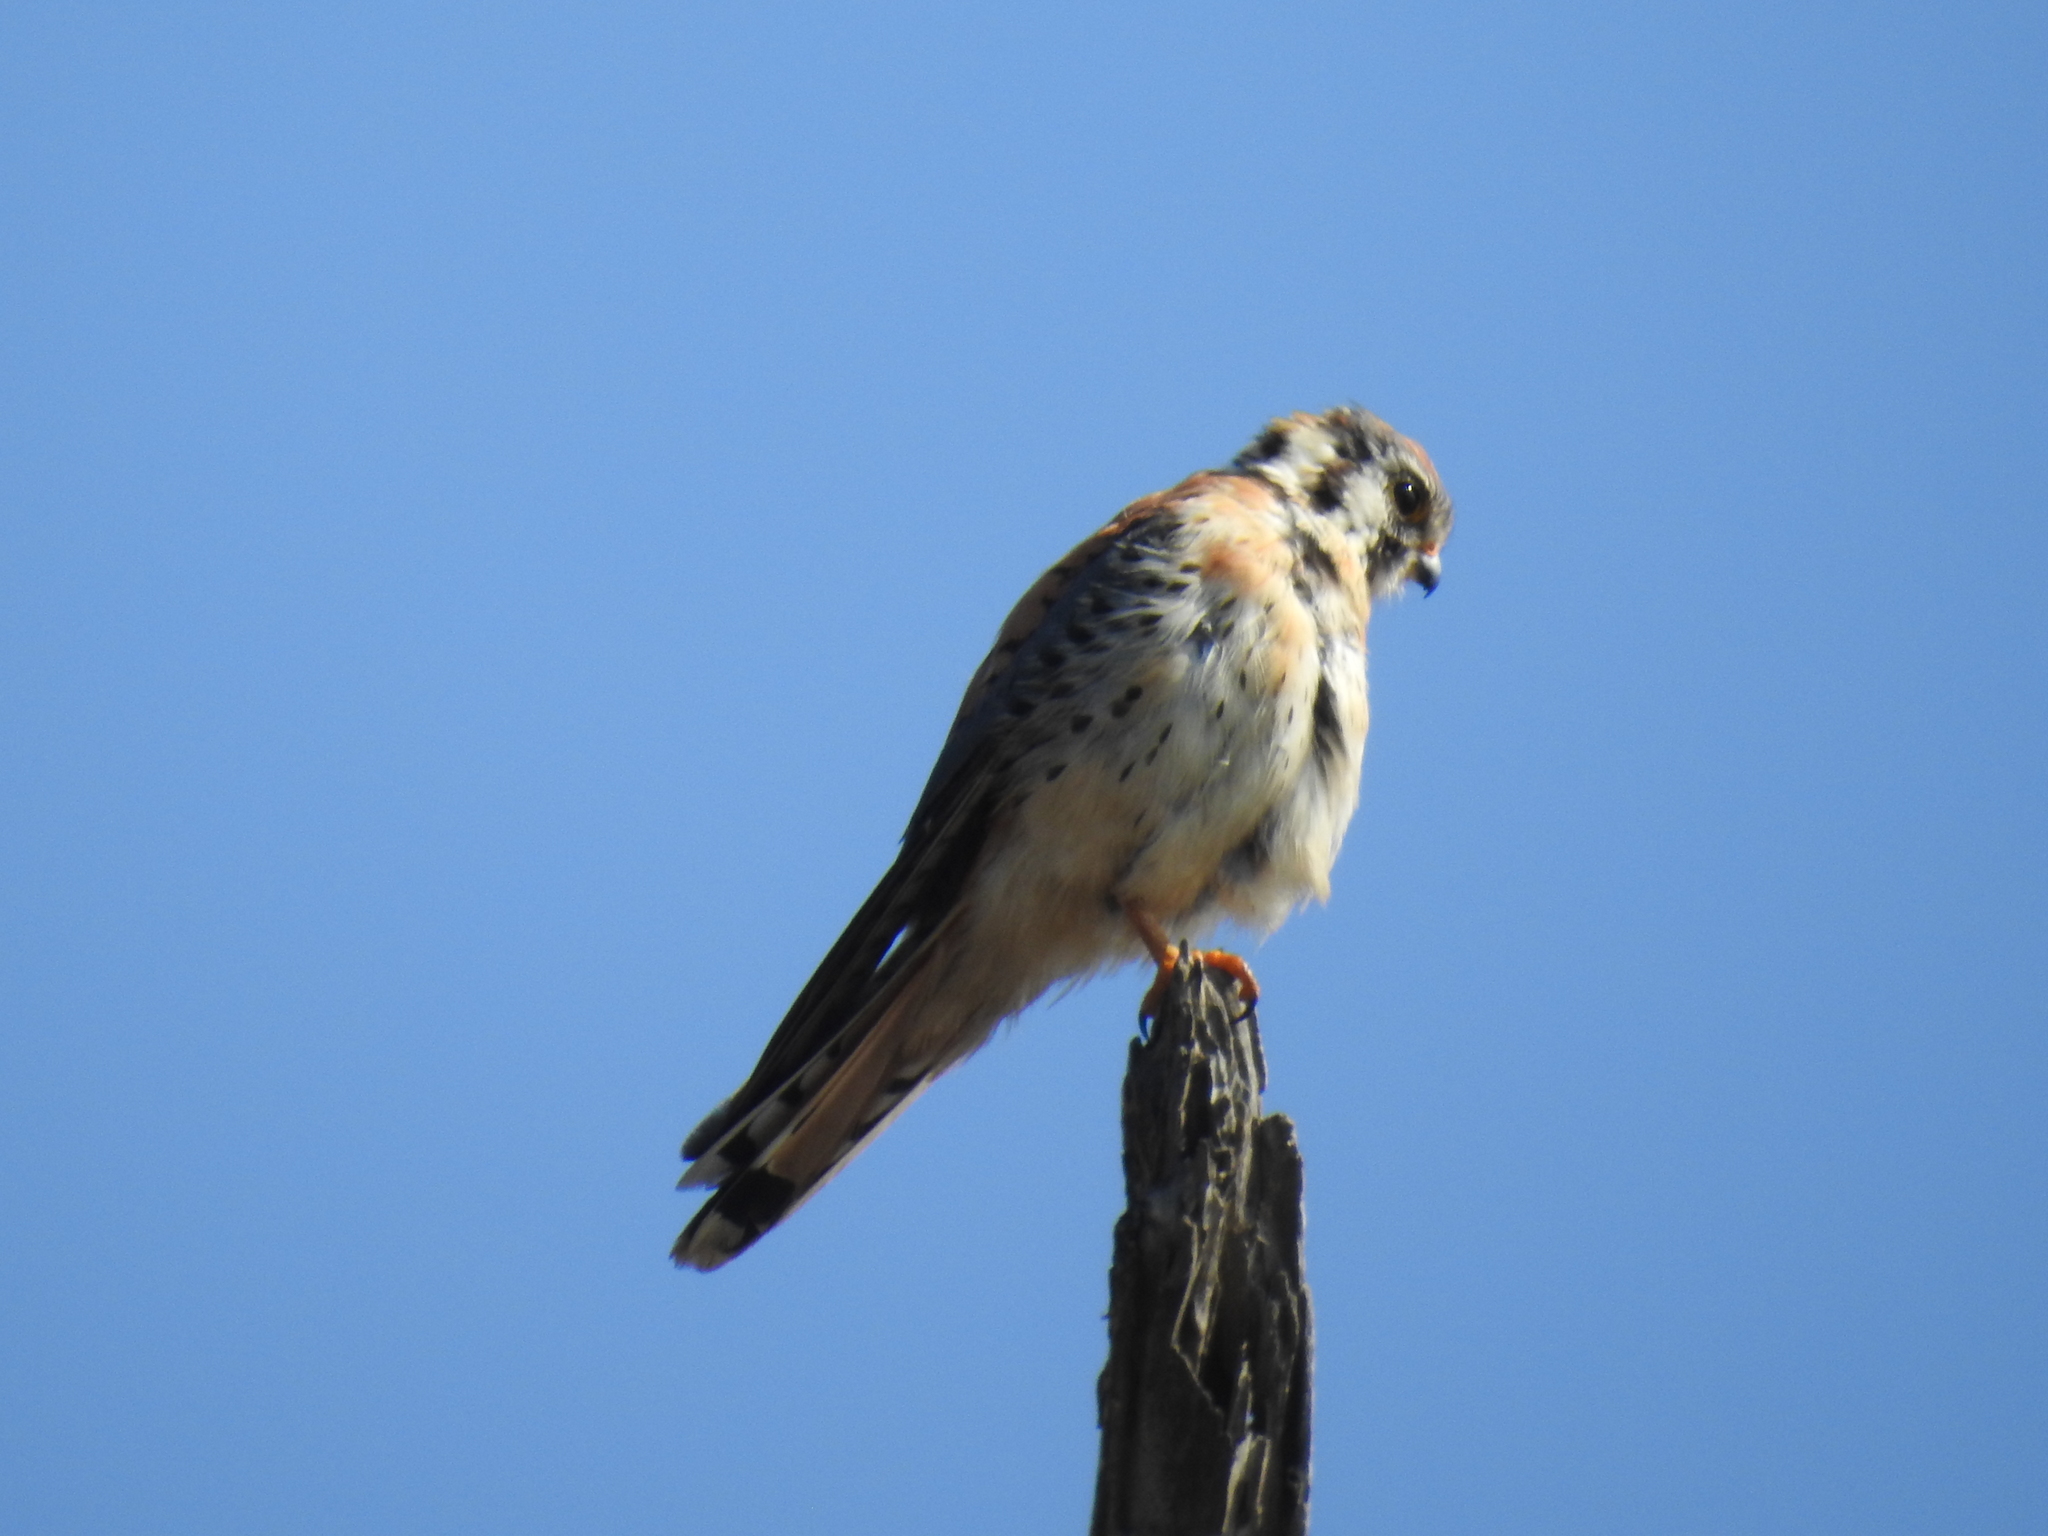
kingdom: Animalia
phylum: Chordata
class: Aves
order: Falconiformes
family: Falconidae
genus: Falco
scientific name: Falco sparverius
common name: American kestrel
